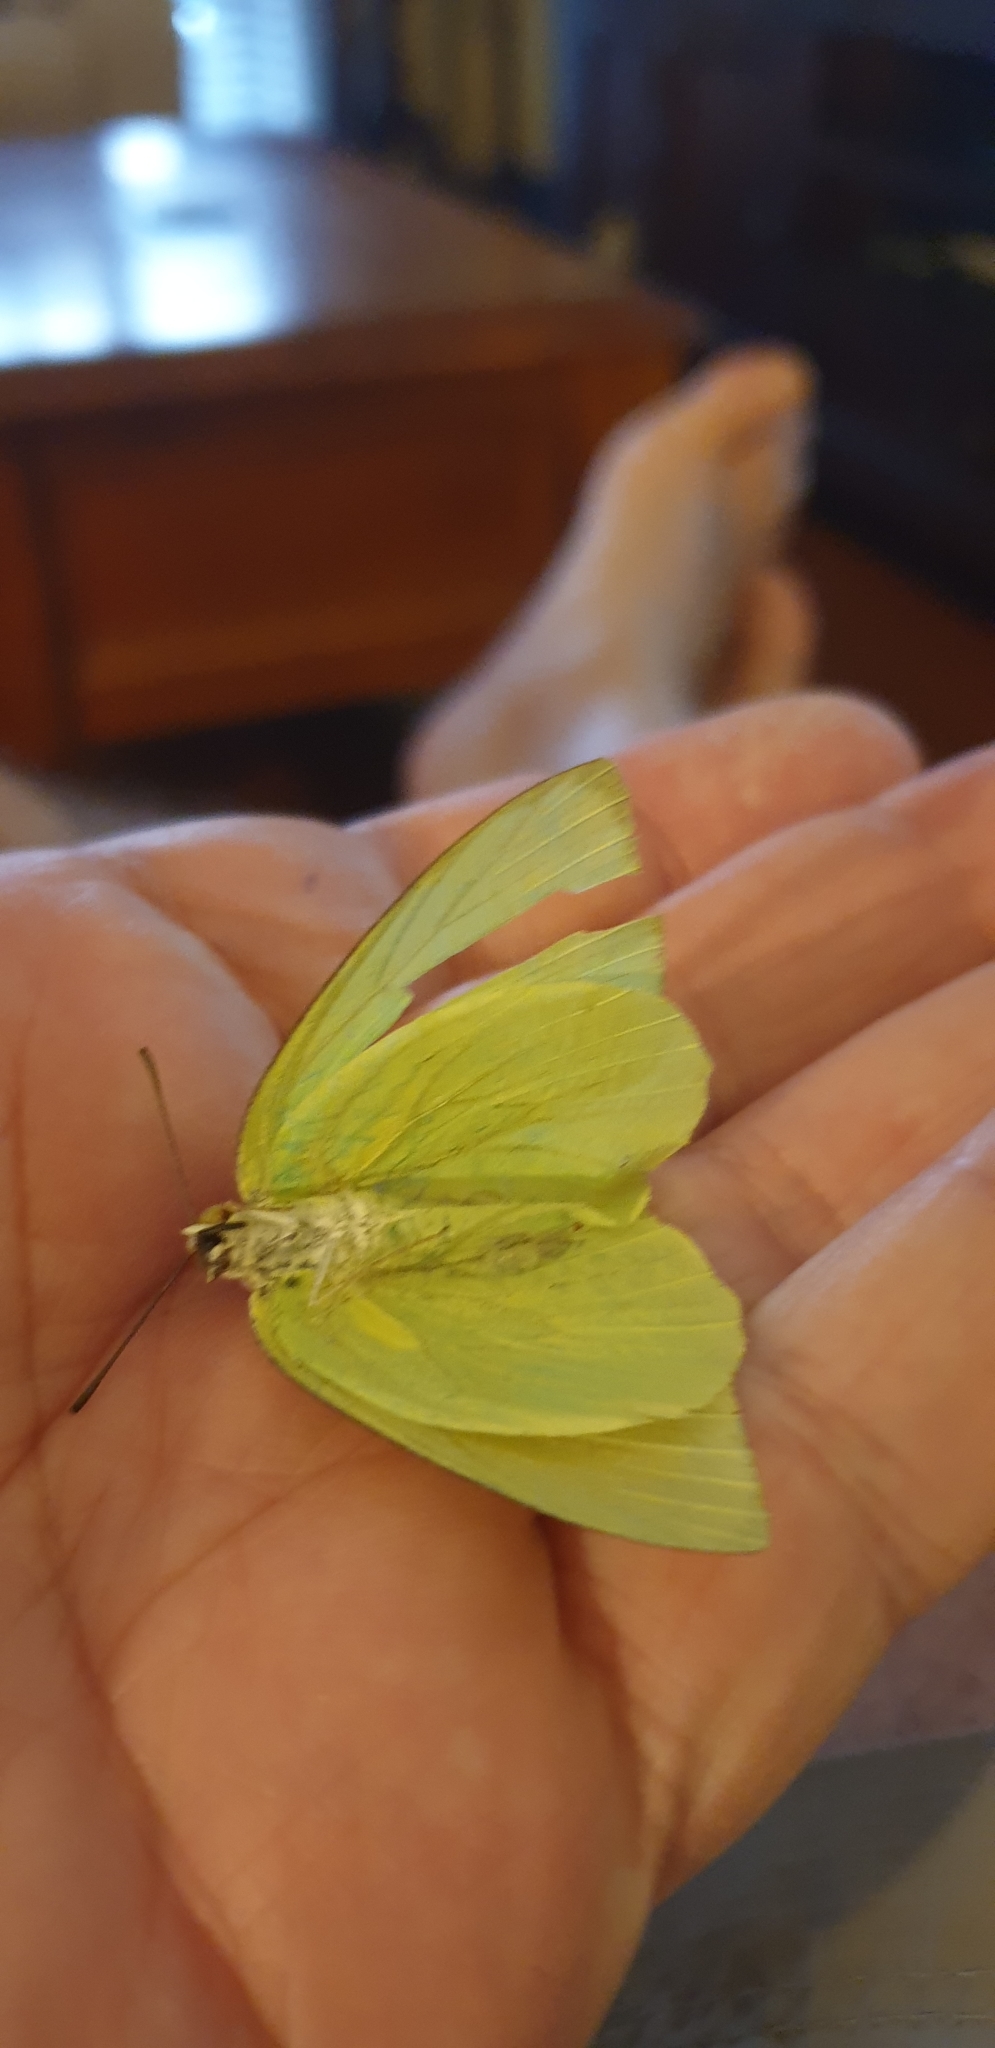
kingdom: Animalia
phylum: Arthropoda
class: Insecta
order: Lepidoptera
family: Pieridae
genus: Catopsilia
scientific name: Catopsilia pomona
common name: Common emigrant
